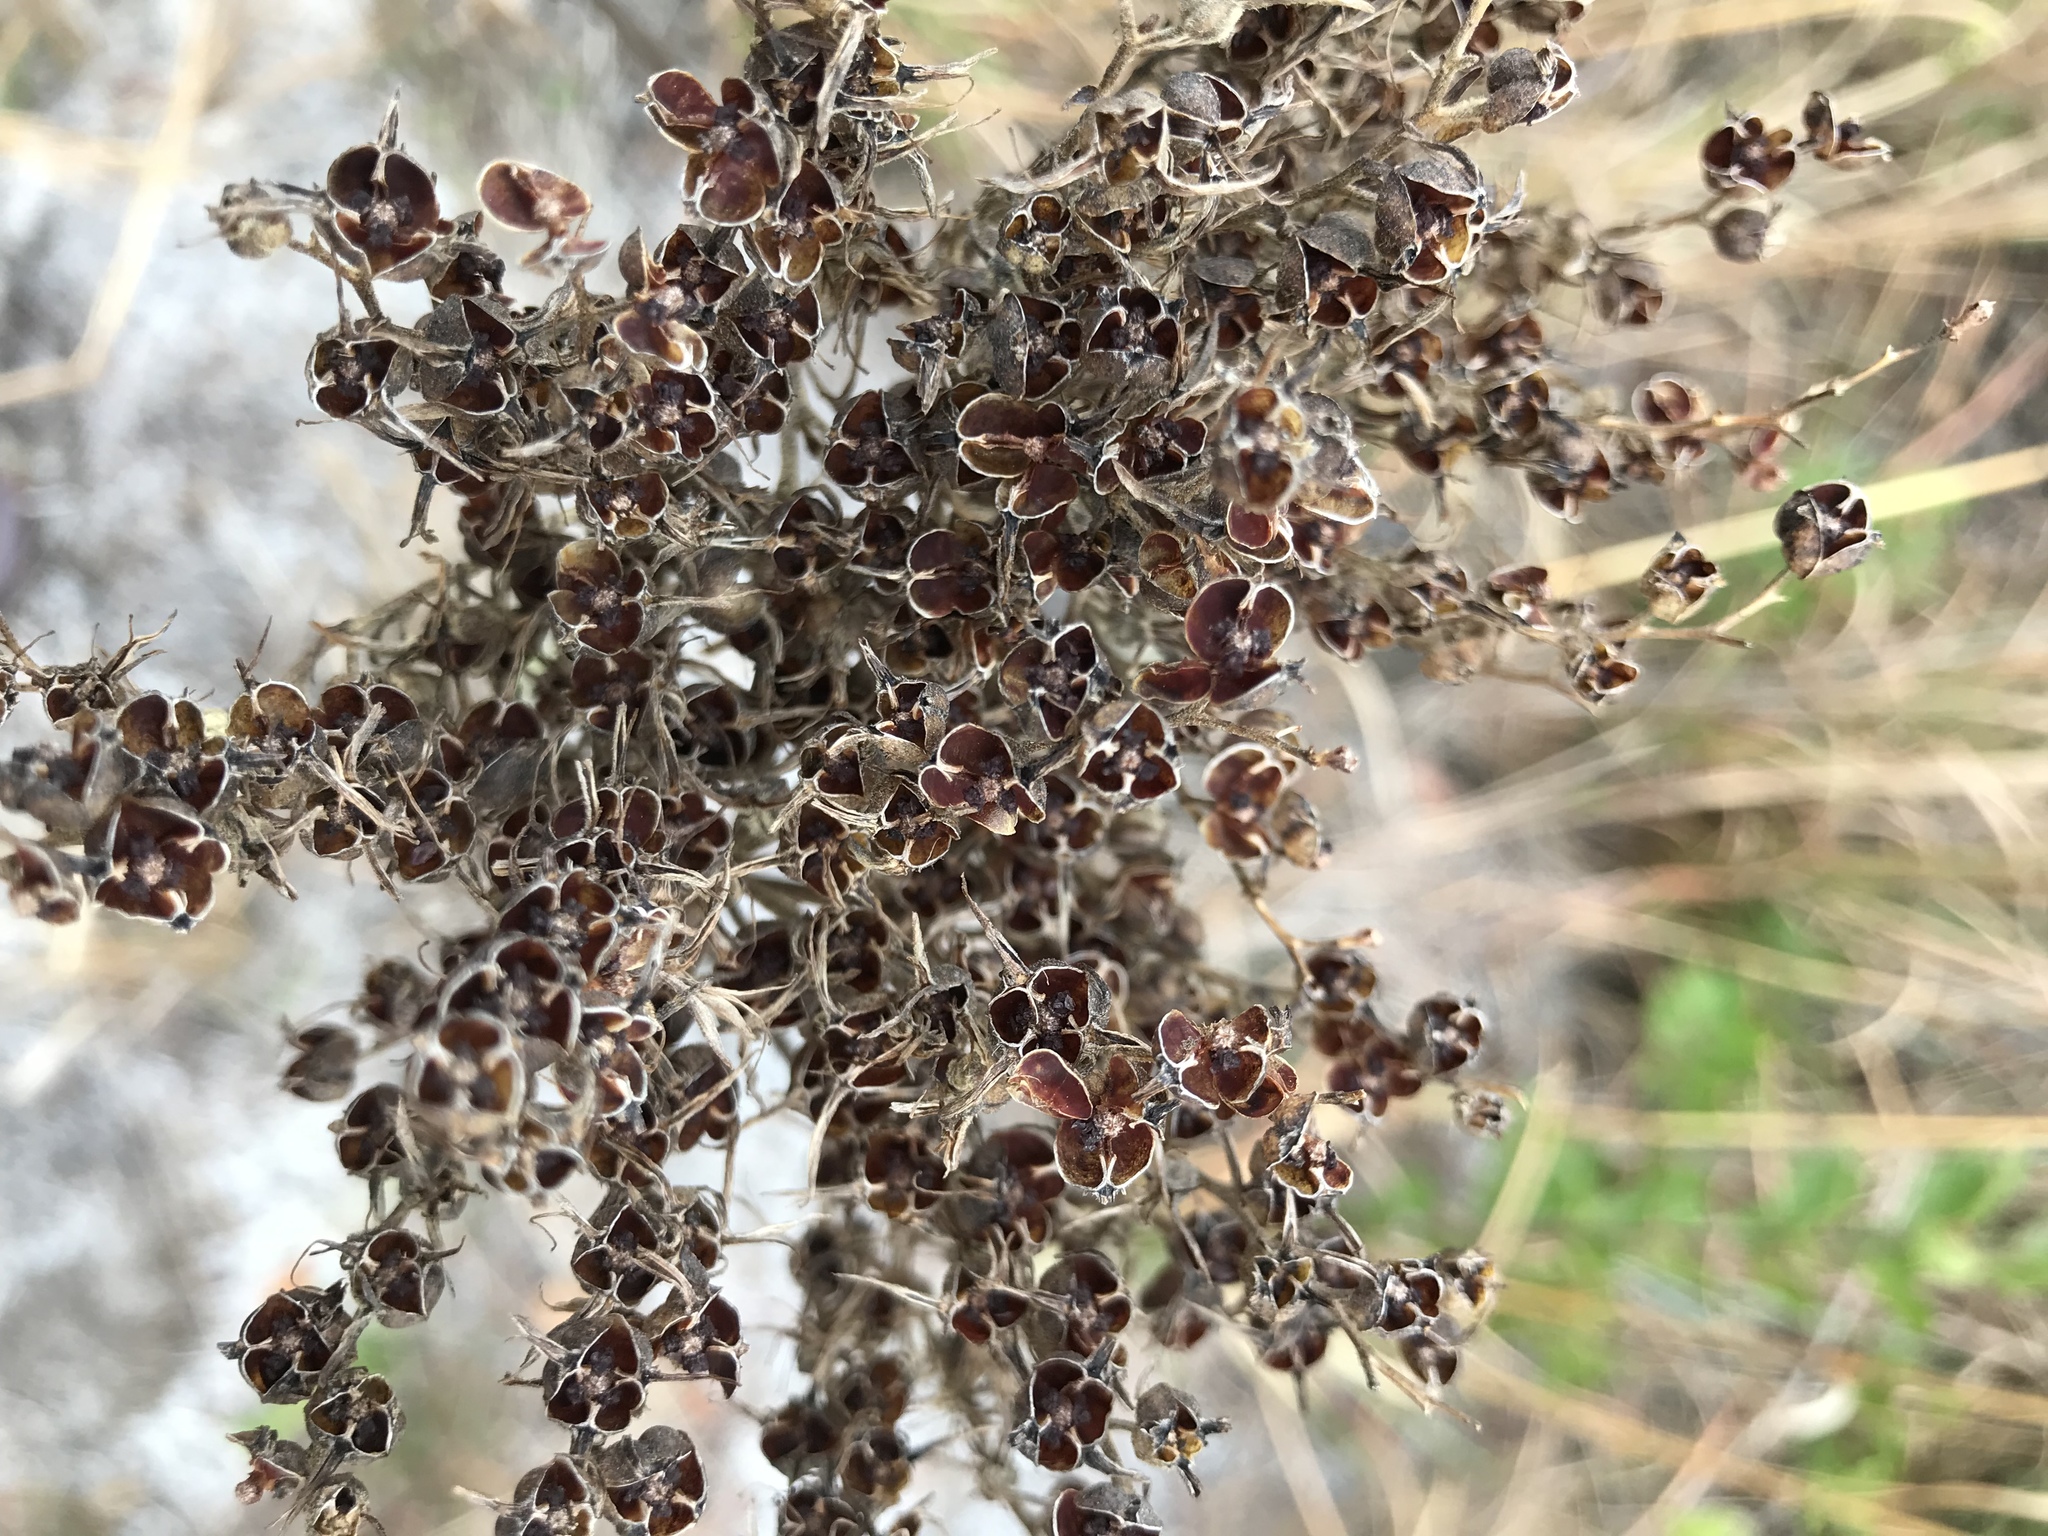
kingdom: Plantae
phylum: Tracheophyta
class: Liliopsida
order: Commelinales
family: Haemodoraceae
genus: Lachnanthes
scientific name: Lachnanthes caroliana
